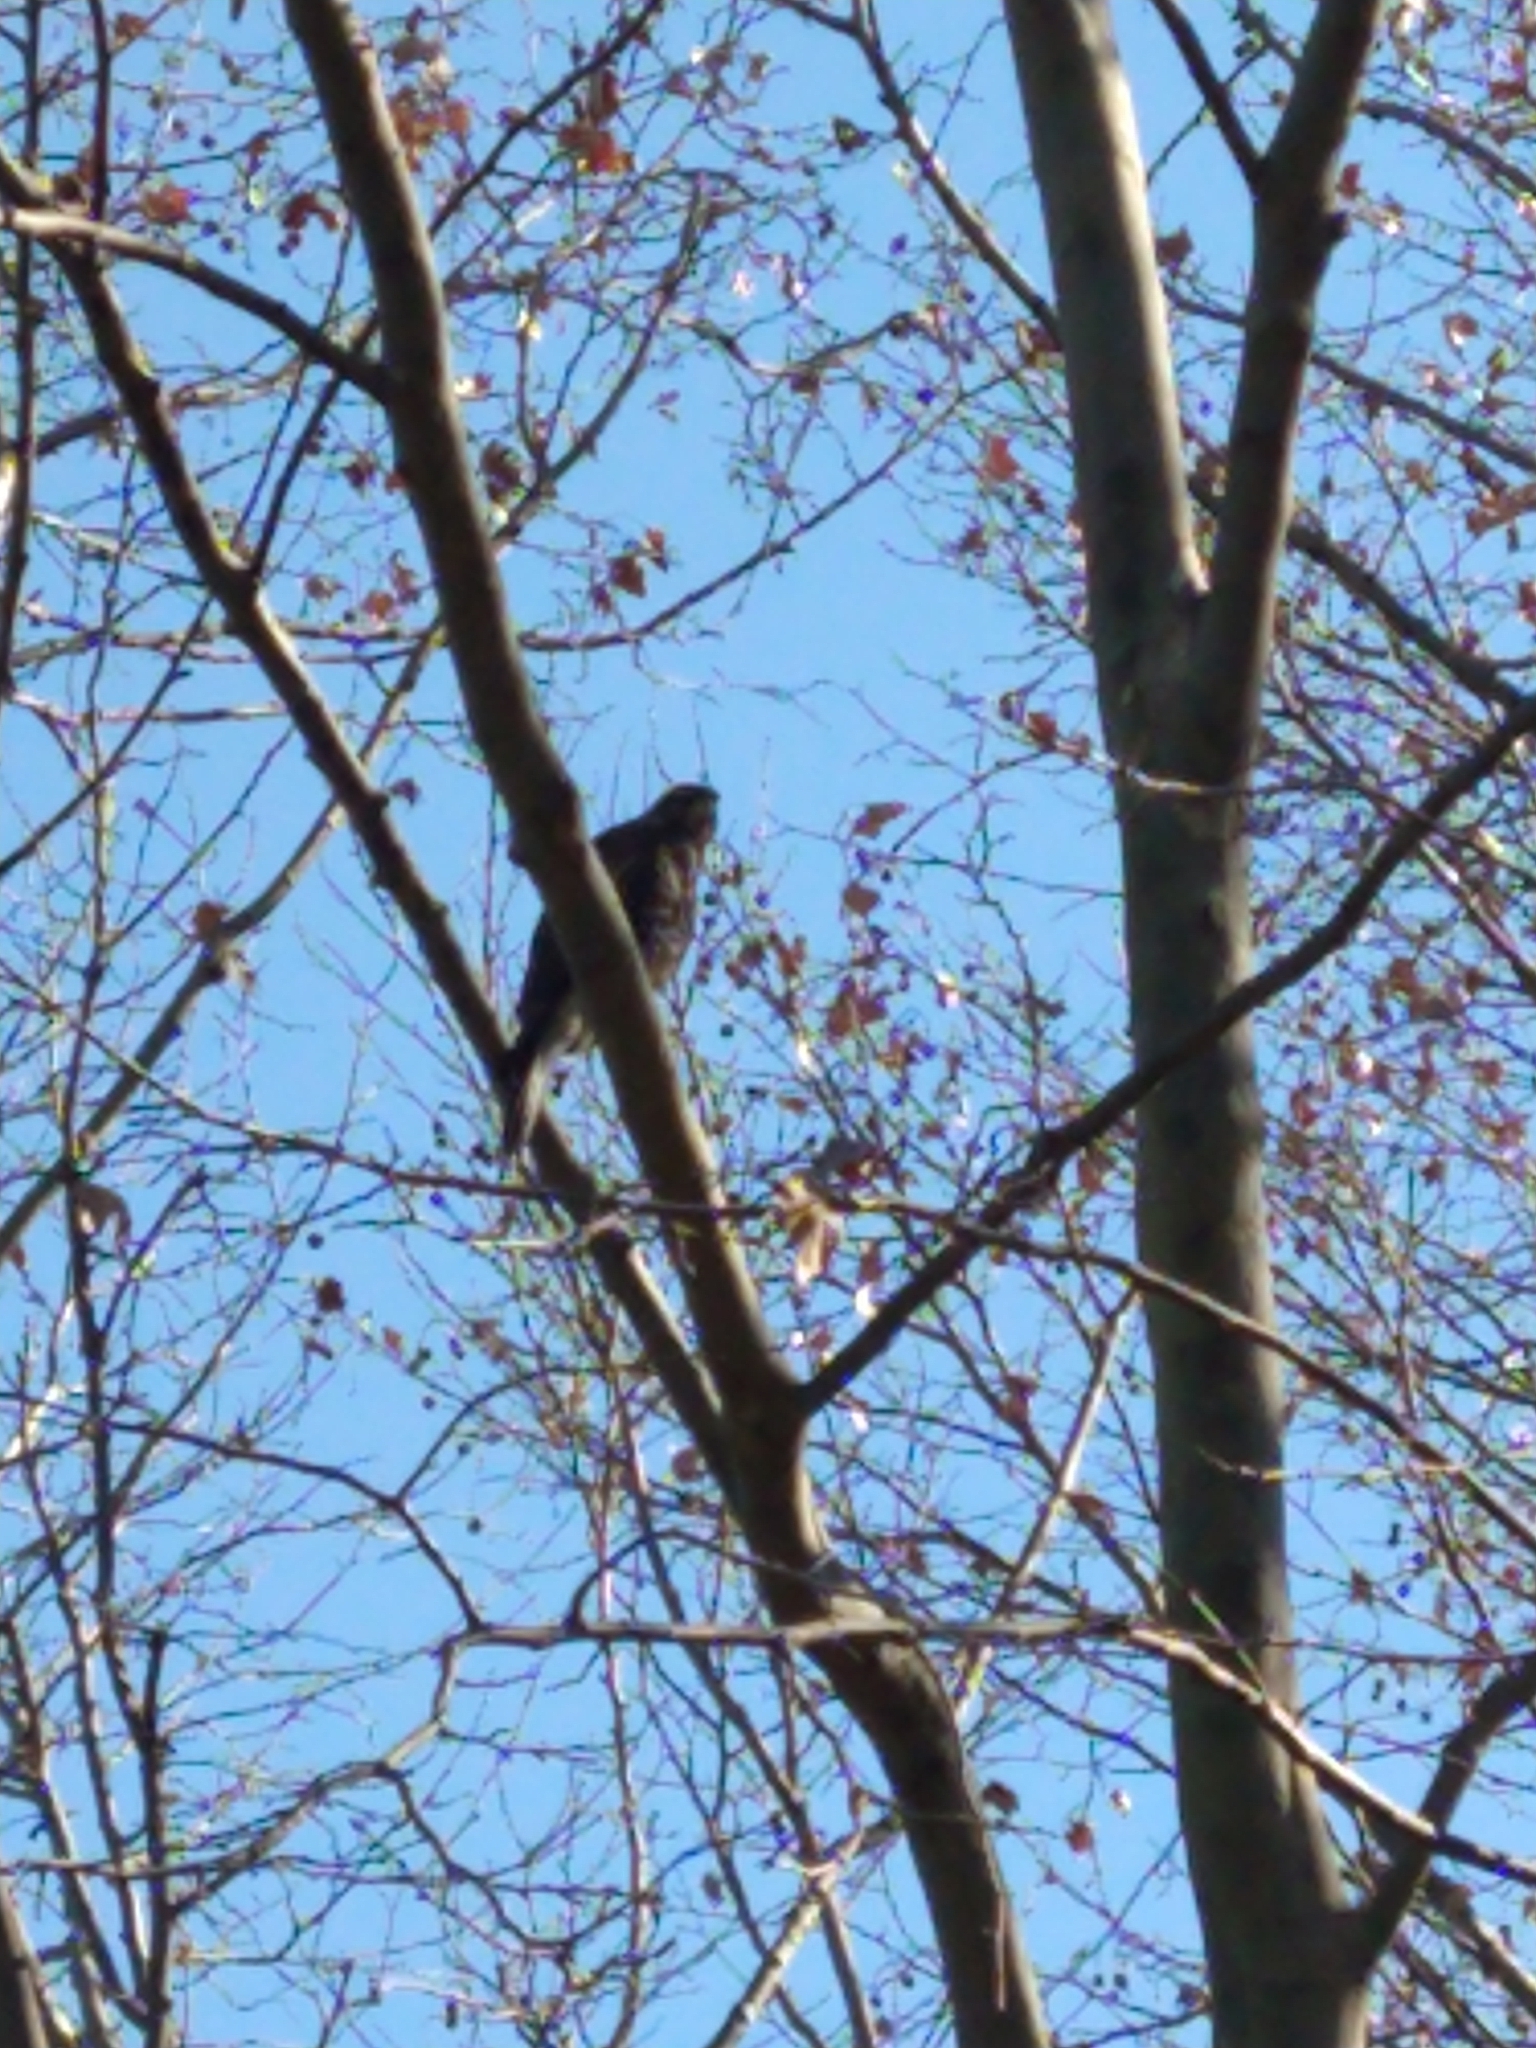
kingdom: Animalia
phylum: Chordata
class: Aves
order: Accipitriformes
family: Accipitridae
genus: Parabuteo
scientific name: Parabuteo unicinctus
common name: Harris's hawk
